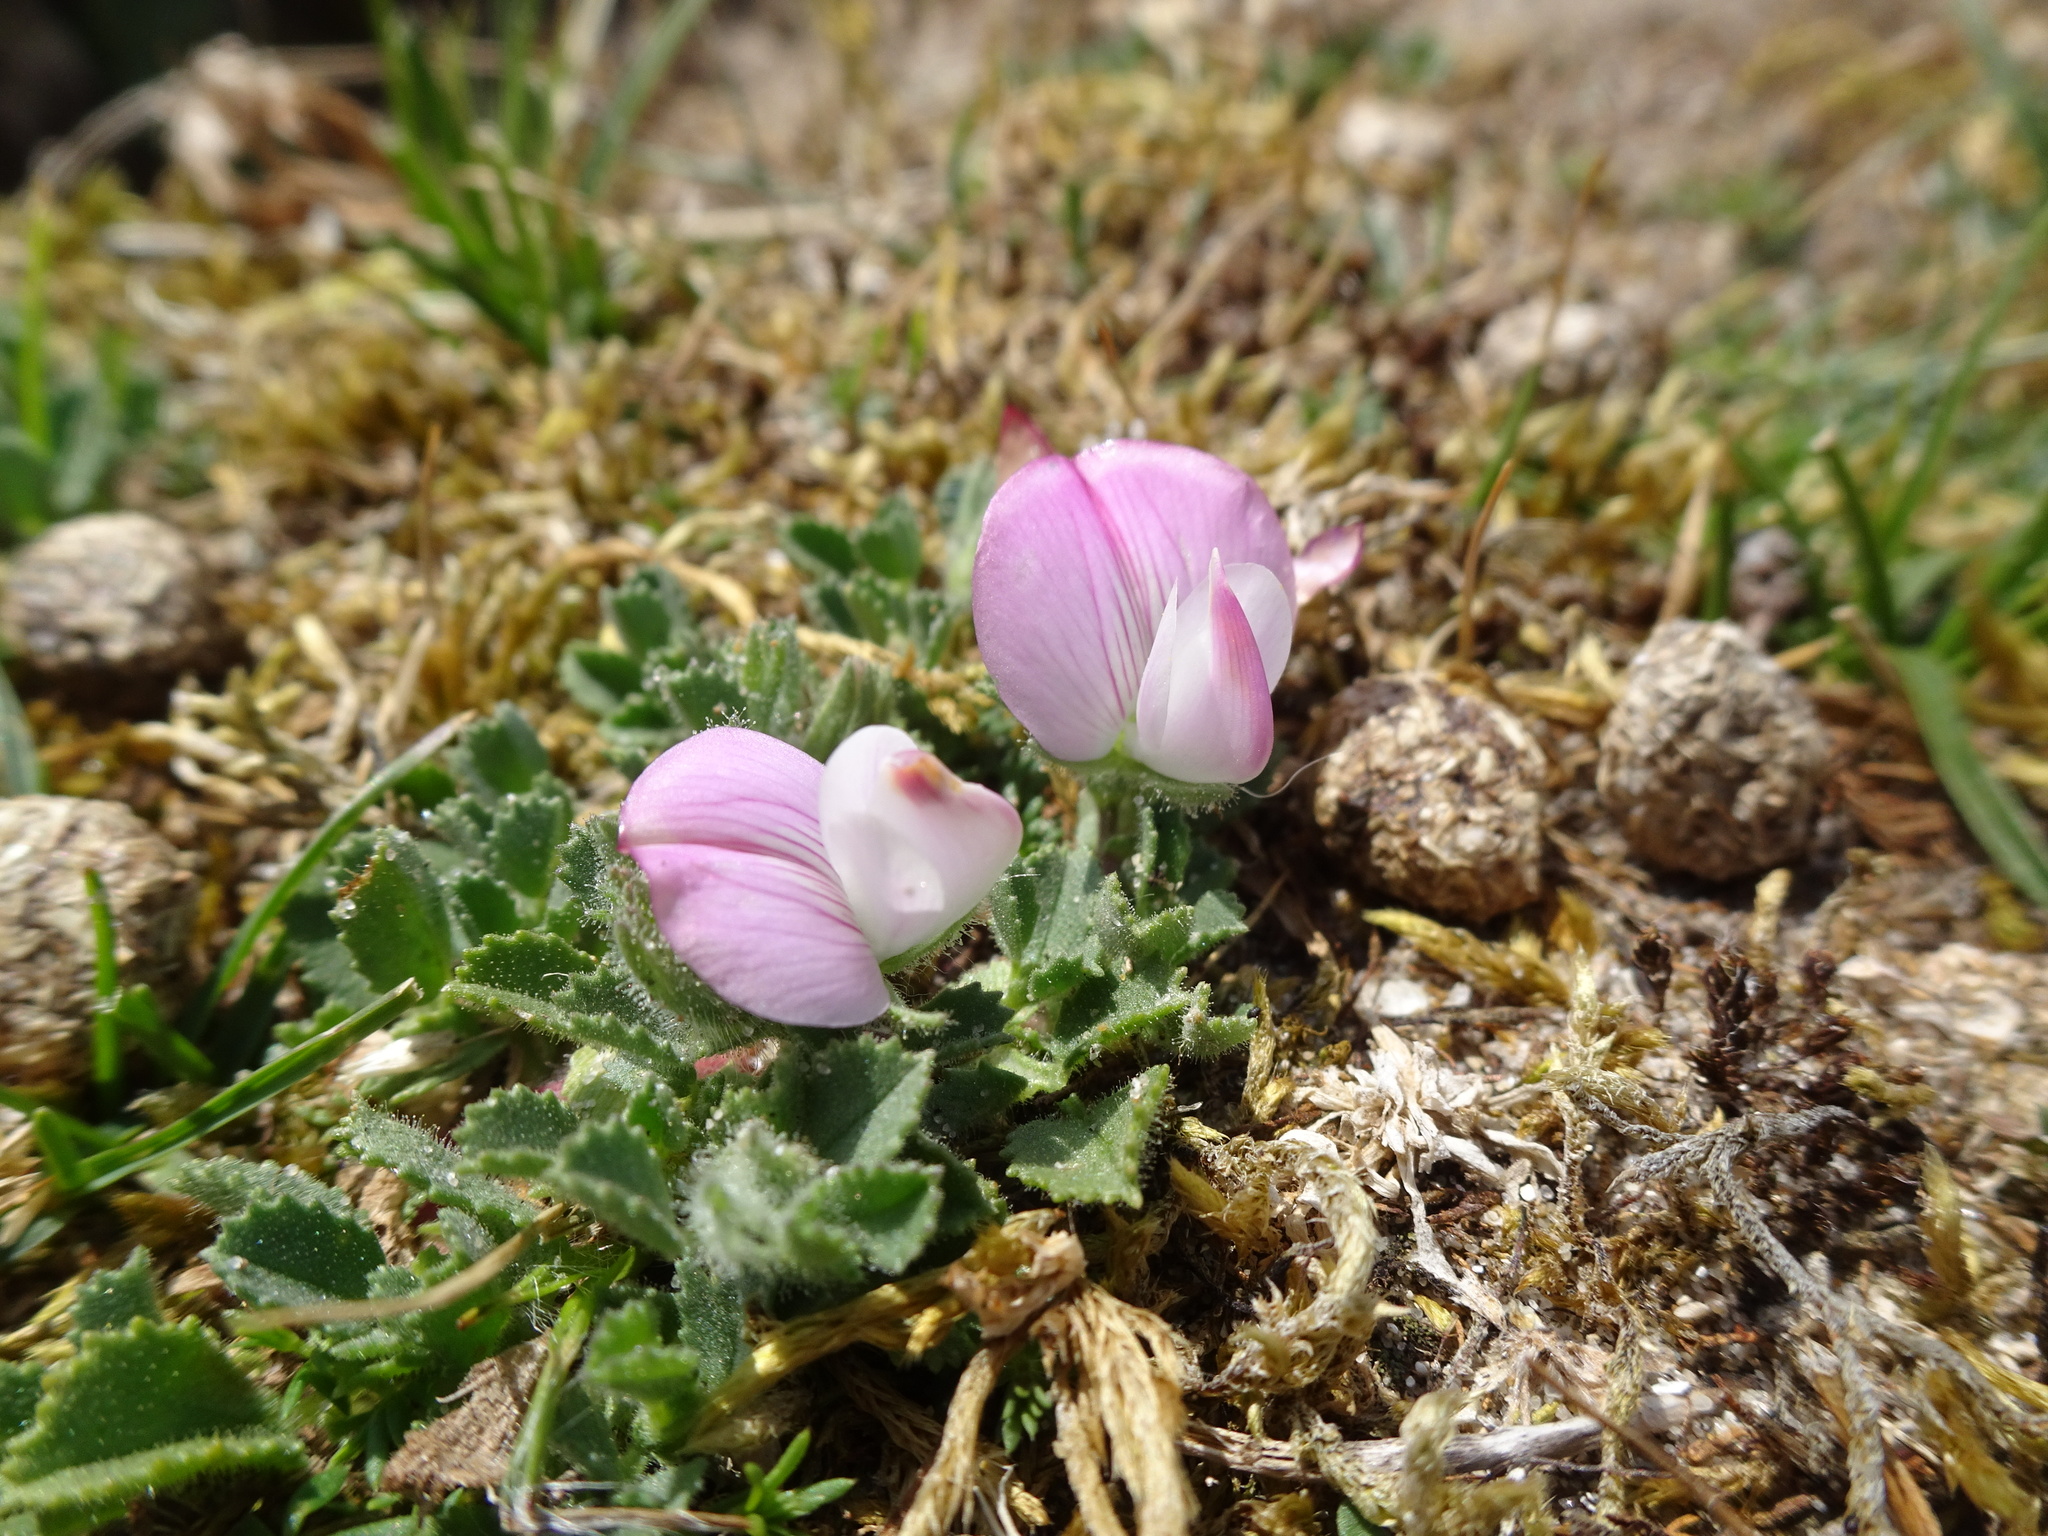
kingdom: Plantae
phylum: Tracheophyta
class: Magnoliopsida
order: Fabales
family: Fabaceae
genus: Ononis
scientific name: Ononis spinosa
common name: Spiny restharrow
